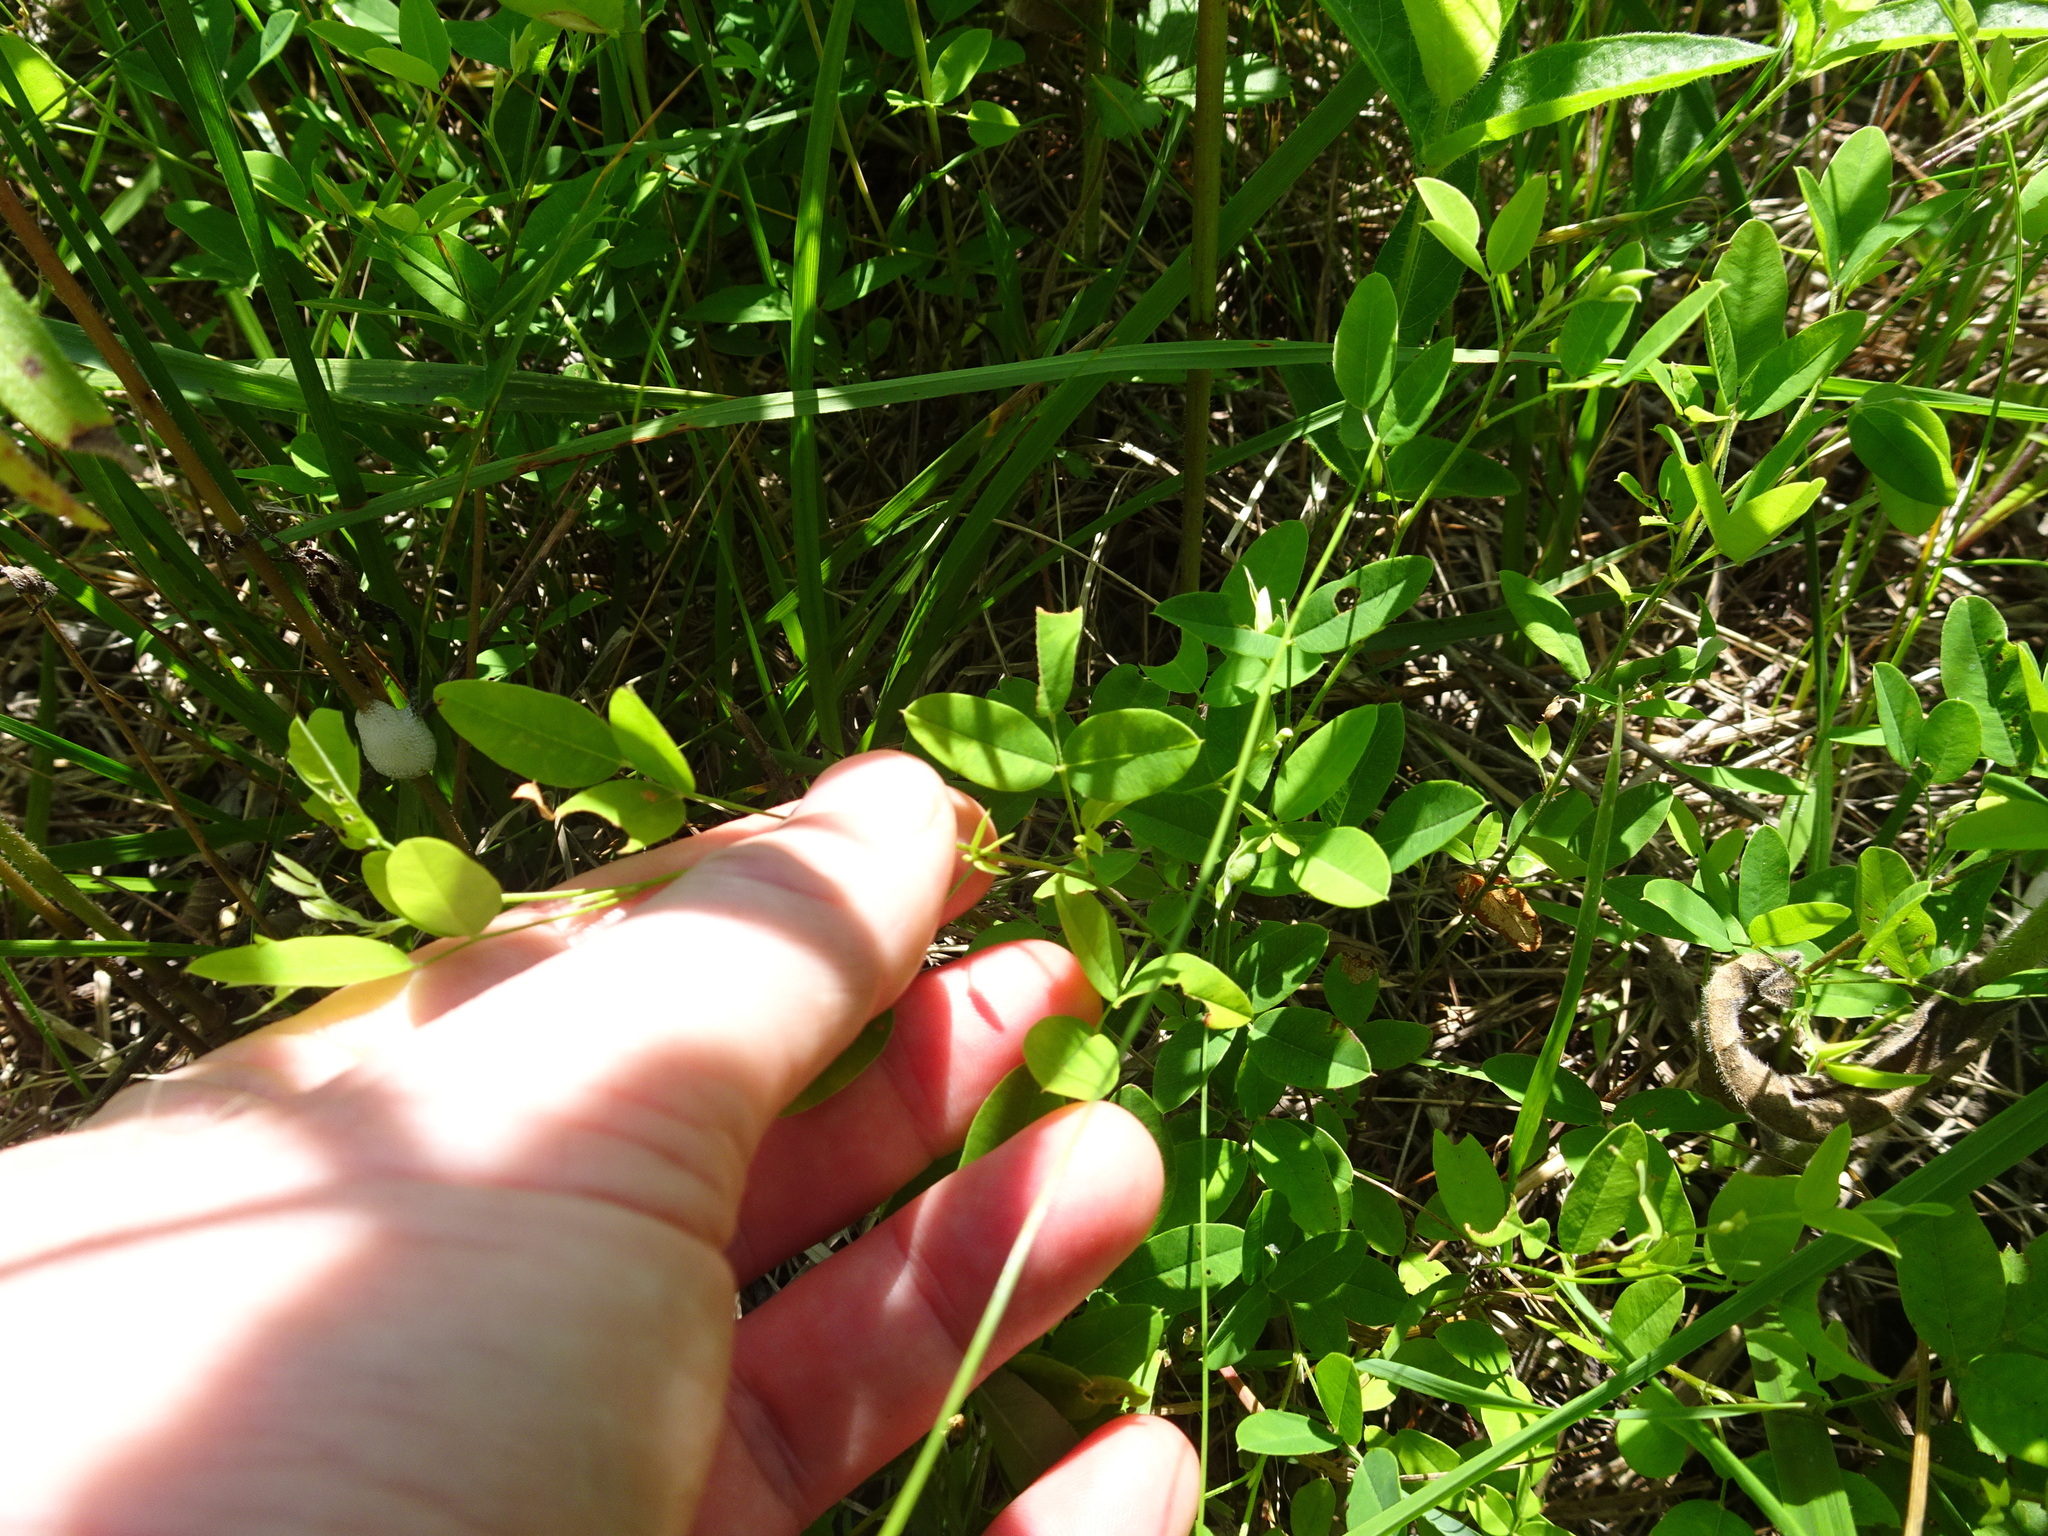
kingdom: Plantae
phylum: Tracheophyta
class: Magnoliopsida
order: Fabales
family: Fabaceae
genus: Lespedeza
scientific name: Lespedeza
